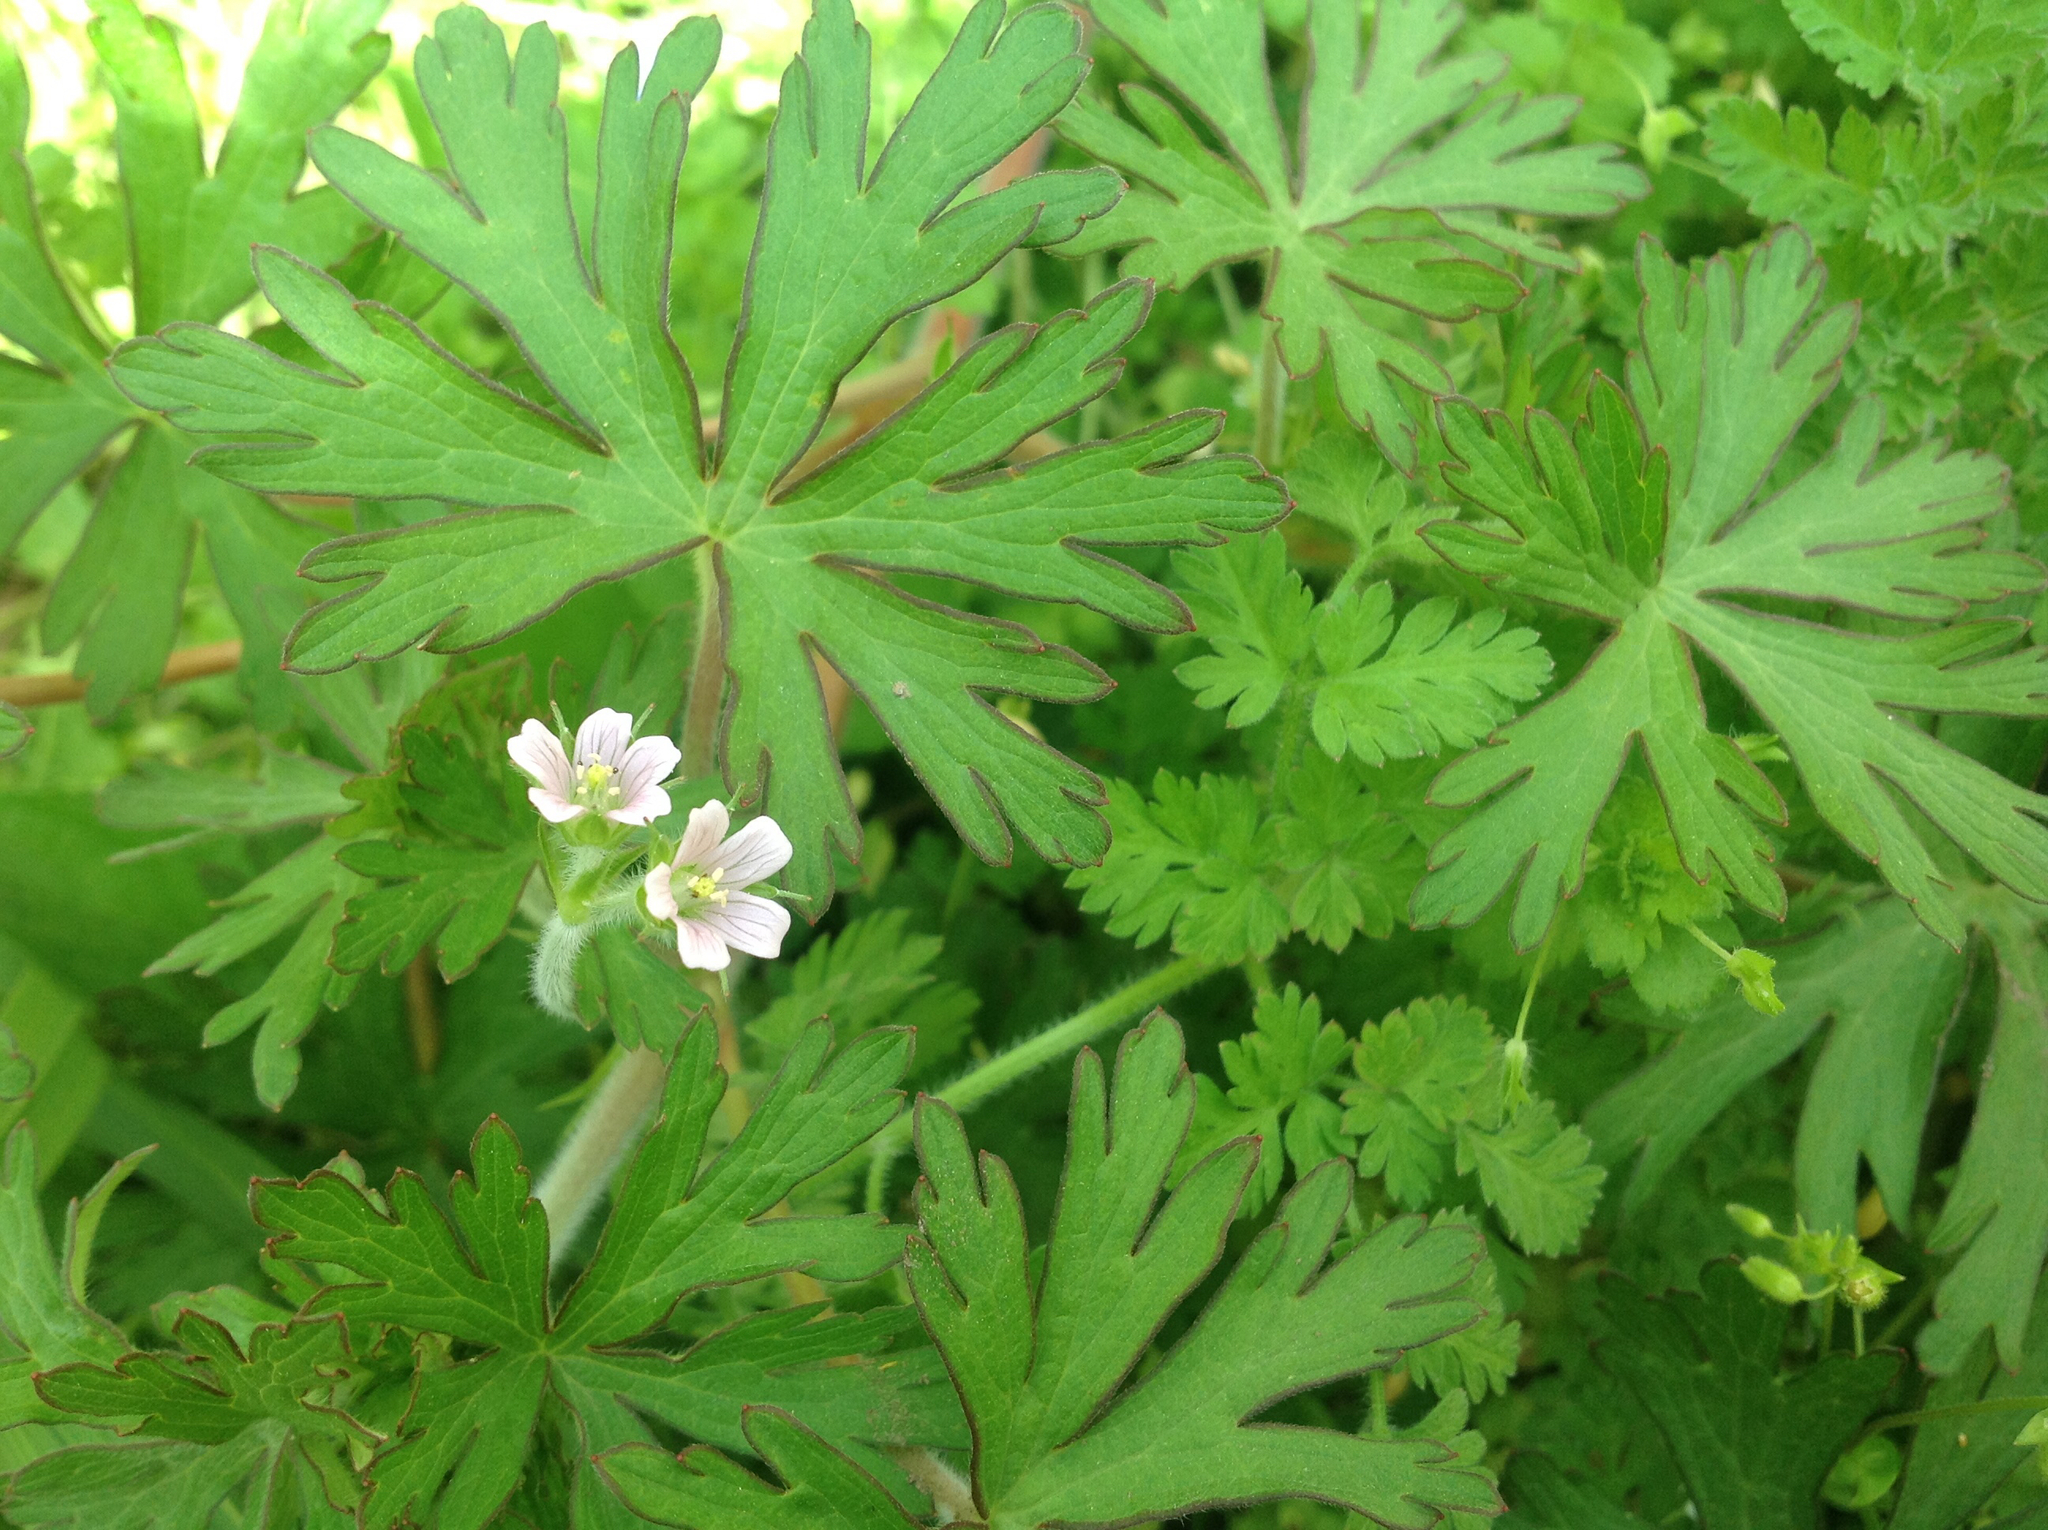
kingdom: Plantae
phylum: Tracheophyta
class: Magnoliopsida
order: Geraniales
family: Geraniaceae
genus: Geranium
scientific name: Geranium carolinianum
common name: Carolina crane's-bill
